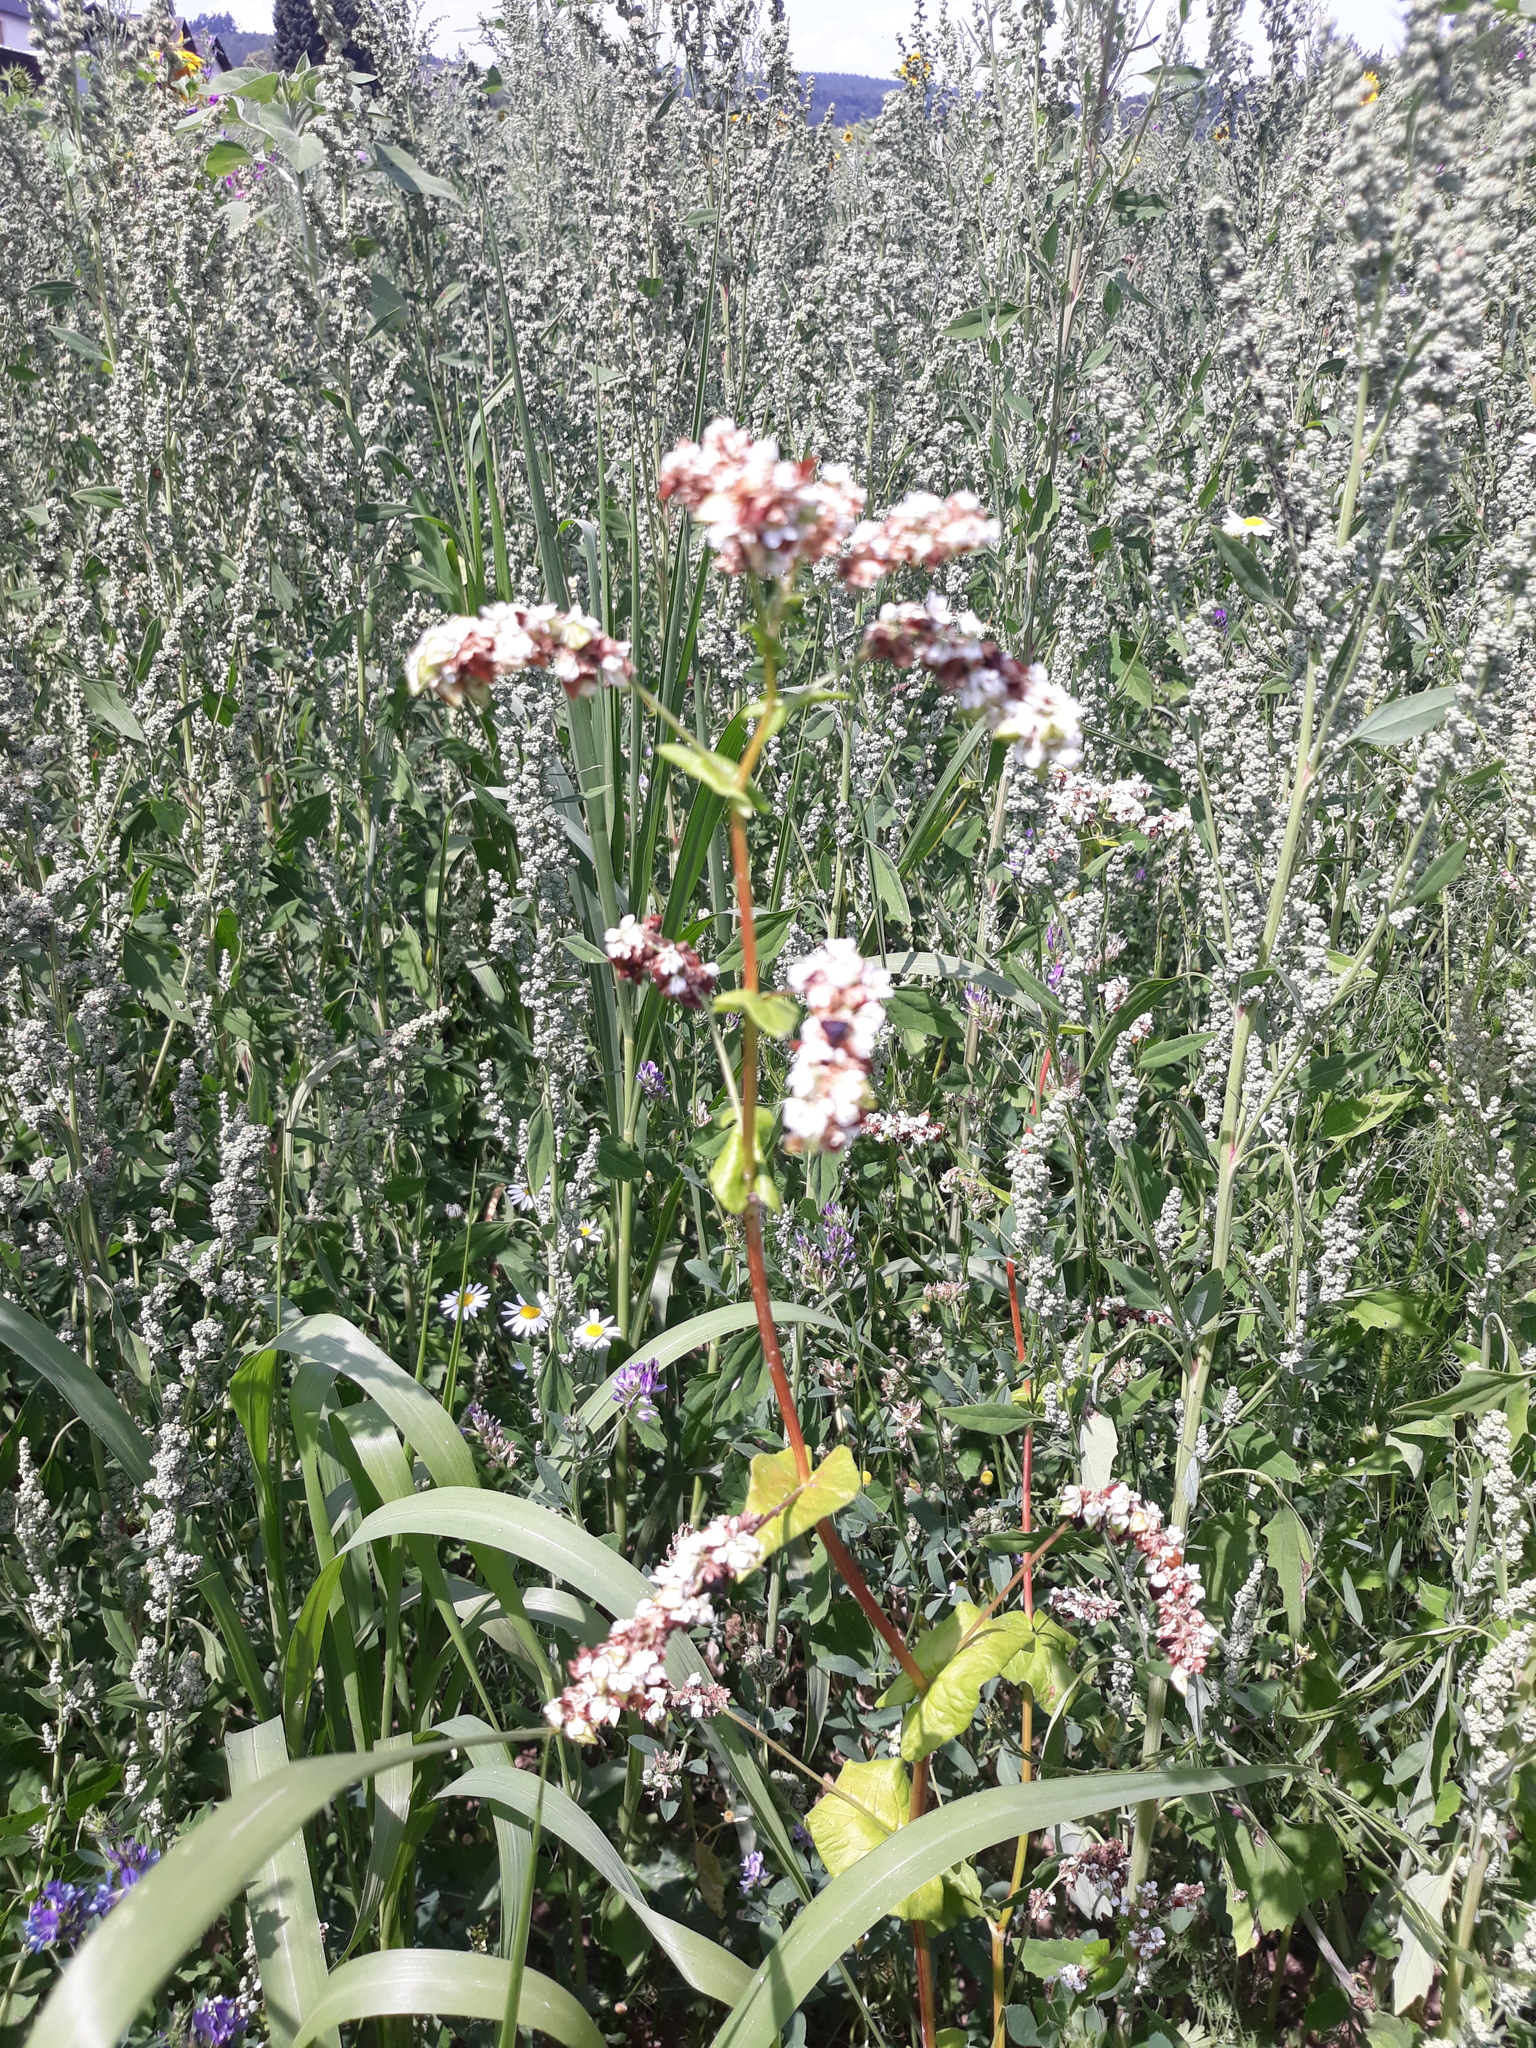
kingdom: Plantae
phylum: Tracheophyta
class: Magnoliopsida
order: Caryophyllales
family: Polygonaceae
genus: Fagopyrum
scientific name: Fagopyrum esculentum
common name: Buckwheat
